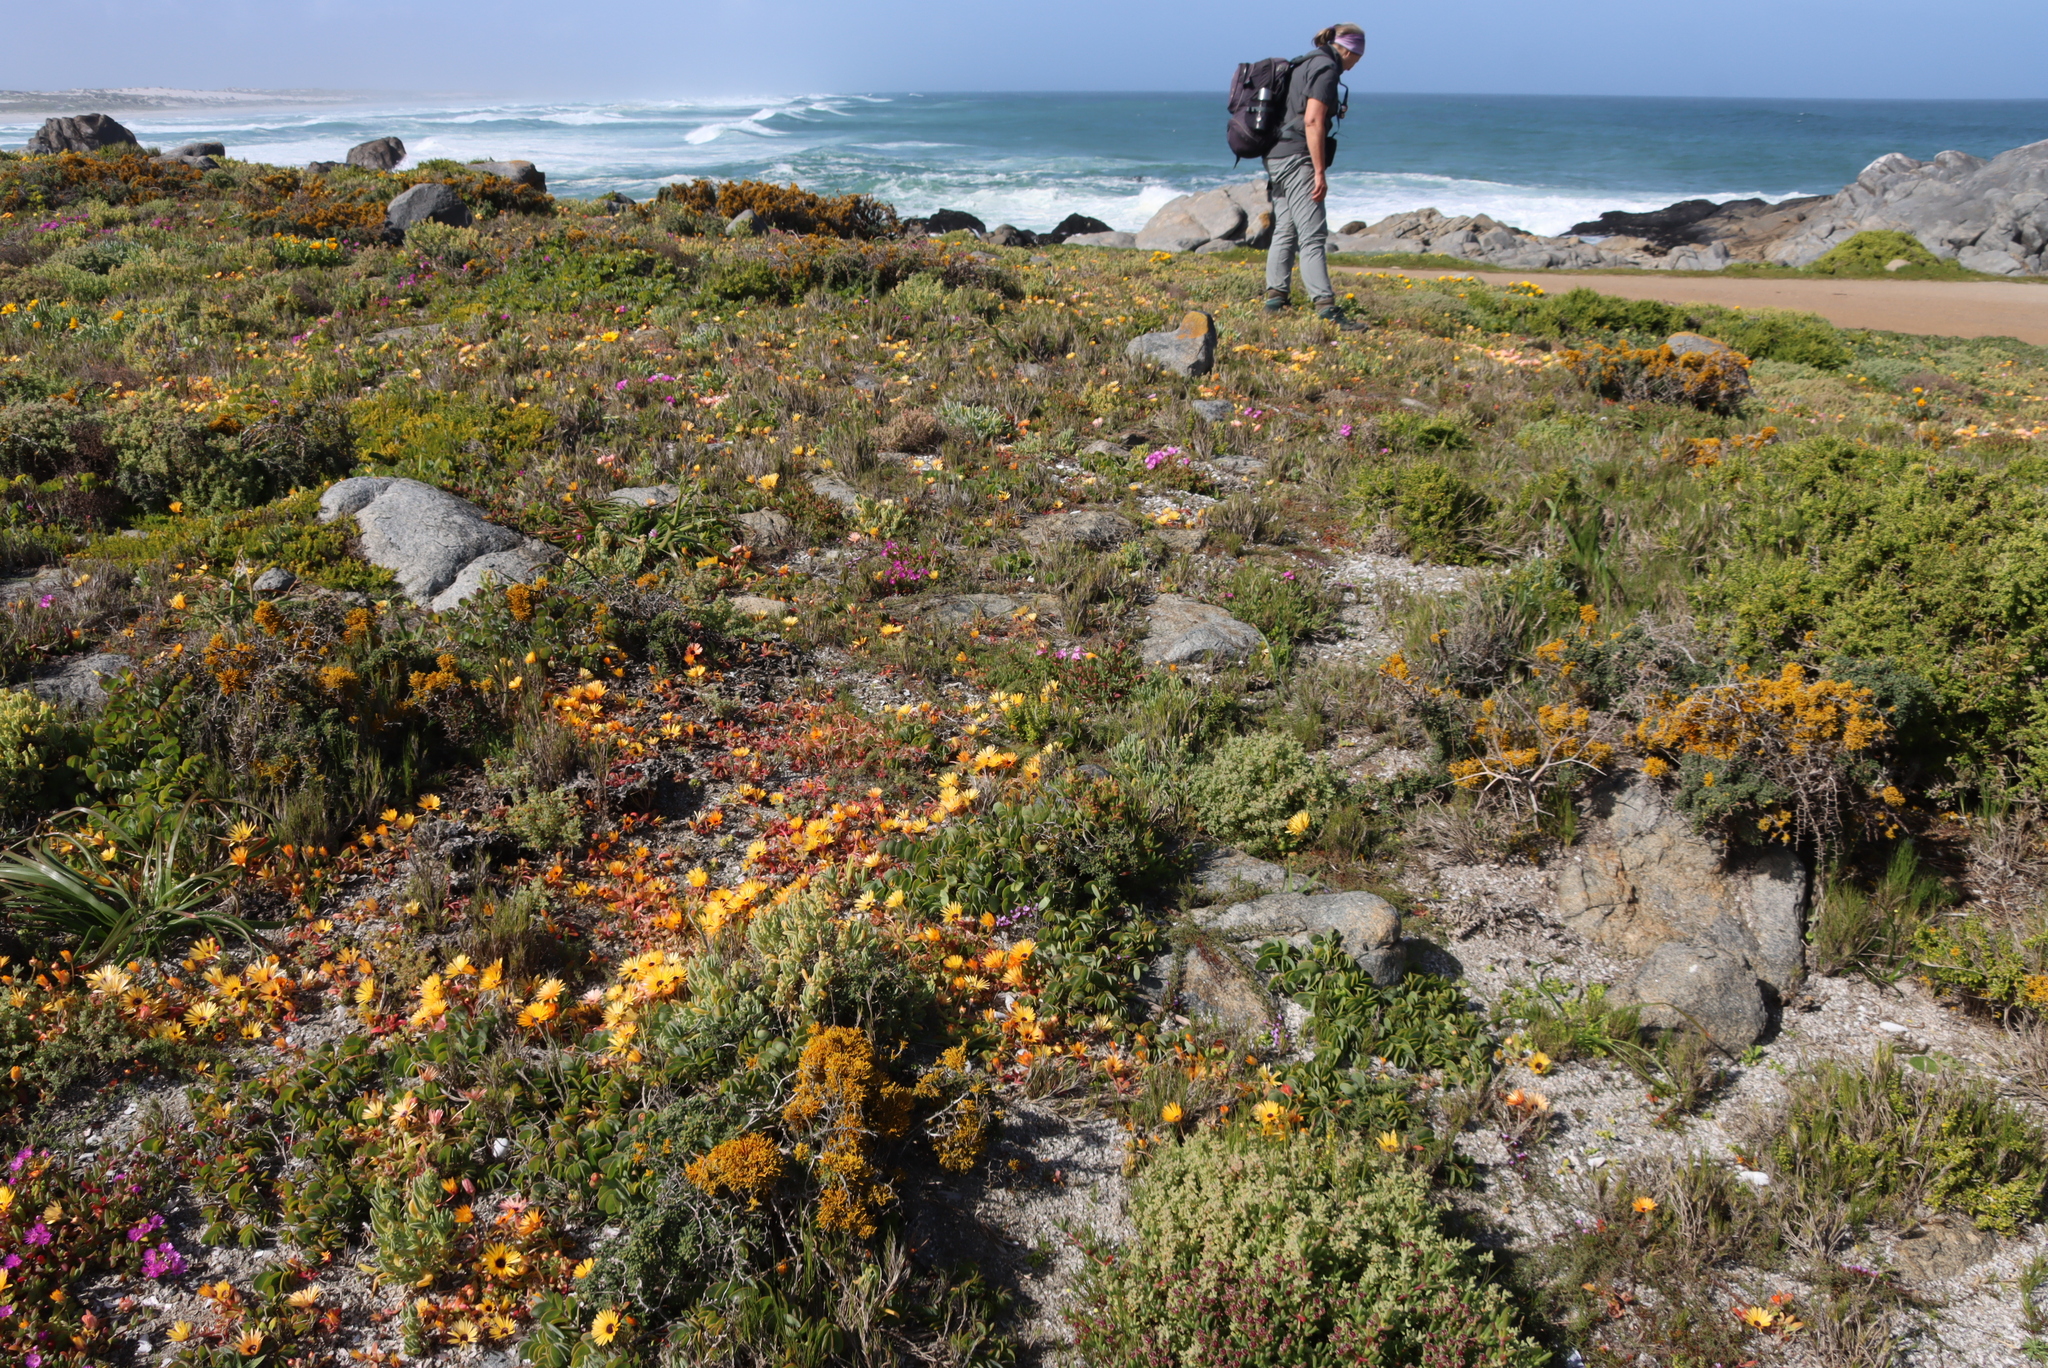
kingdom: Plantae
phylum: Tracheophyta
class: Magnoliopsida
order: Caryophyllales
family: Aizoaceae
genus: Cleretum
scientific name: Cleretum bellidiforme
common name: Livingstone daisy
